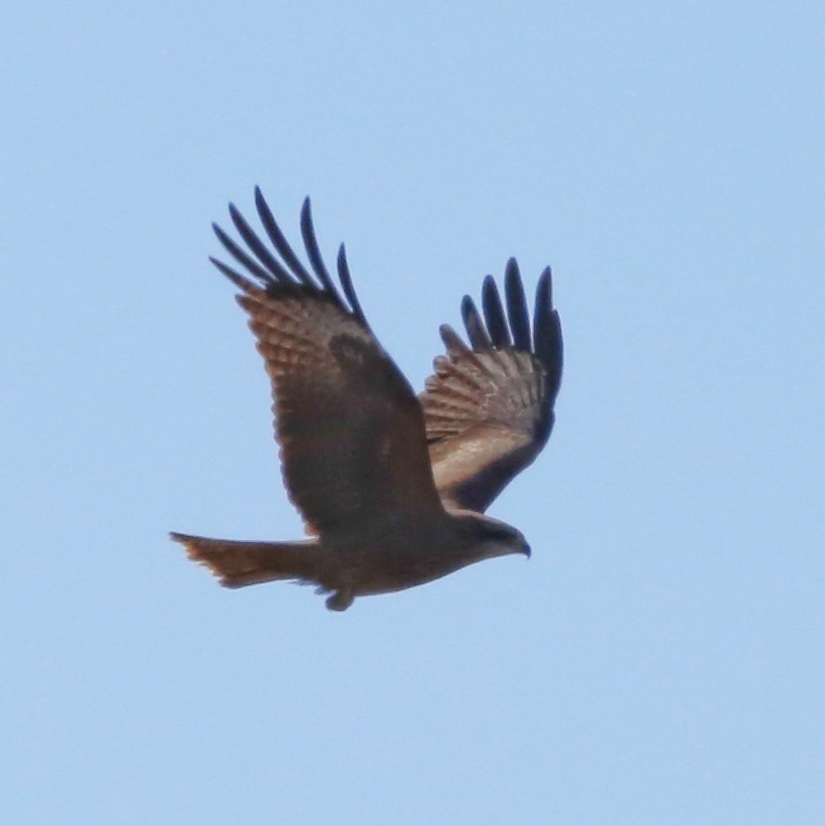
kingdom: Animalia
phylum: Chordata
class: Aves
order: Accipitriformes
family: Accipitridae
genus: Milvus
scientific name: Milvus migrans
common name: Black kite
